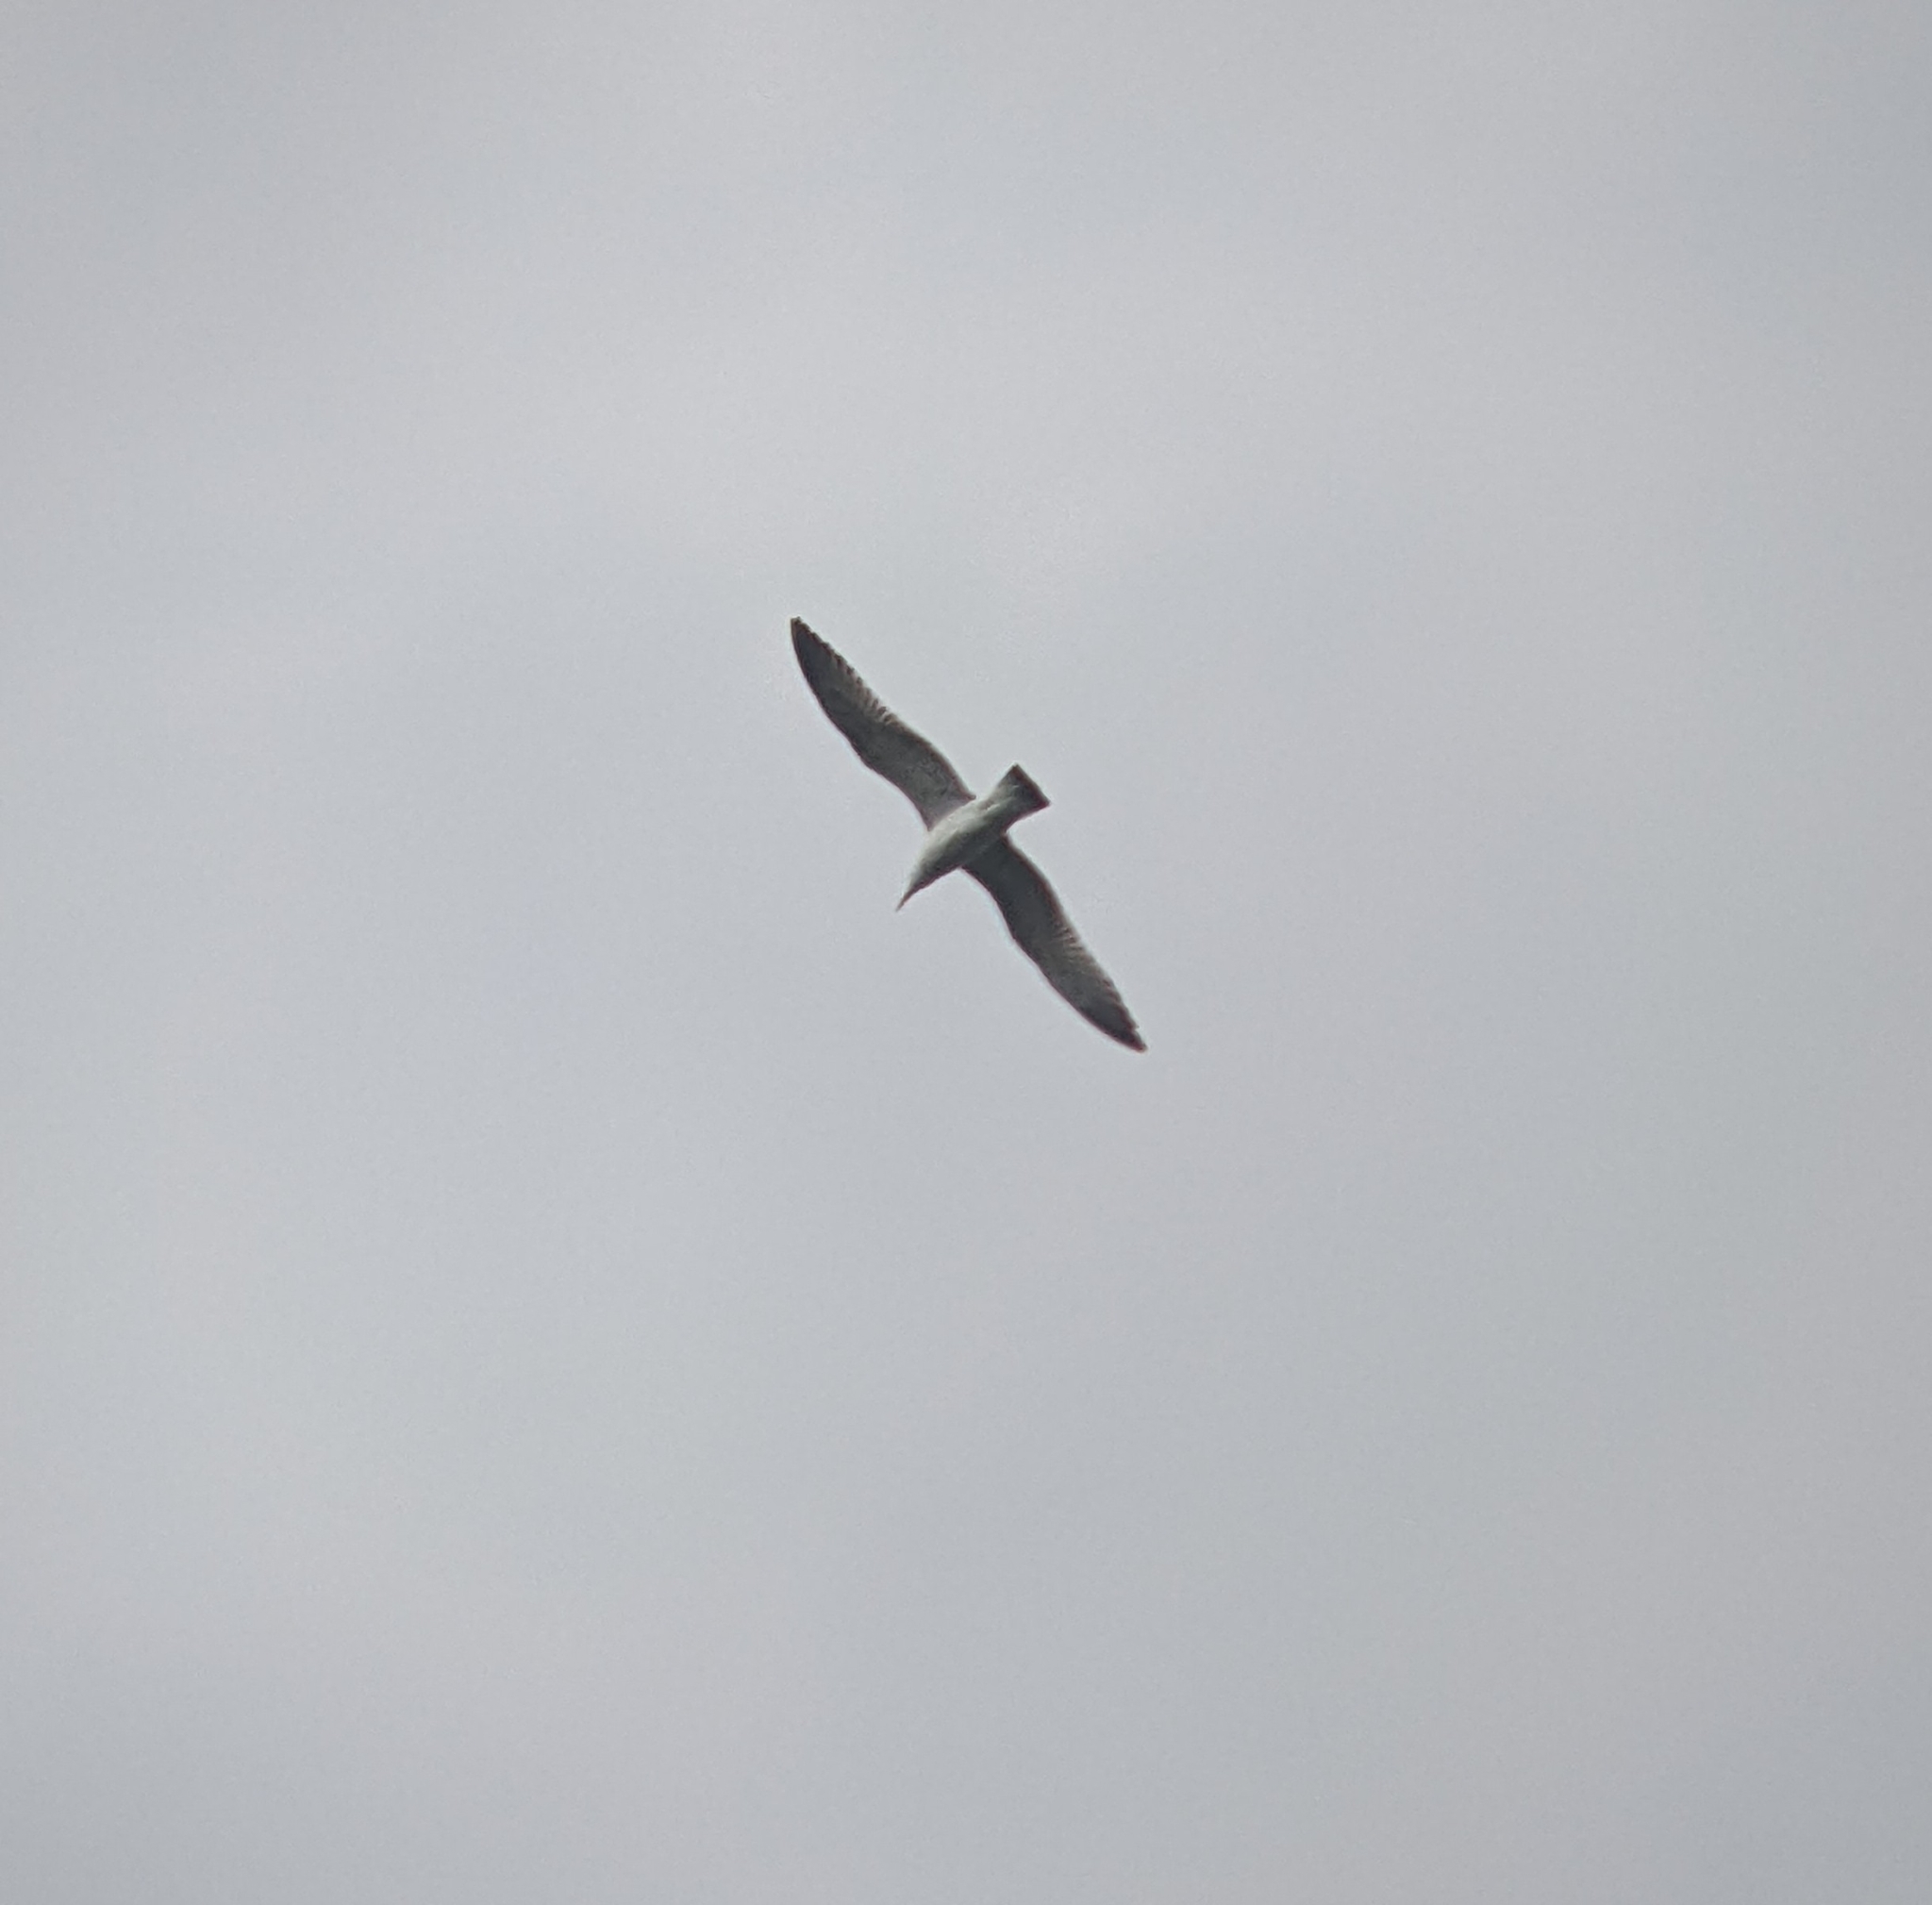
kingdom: Animalia
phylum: Chordata
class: Aves
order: Charadriiformes
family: Laridae
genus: Larus
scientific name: Larus argentatus
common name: Herring gull
